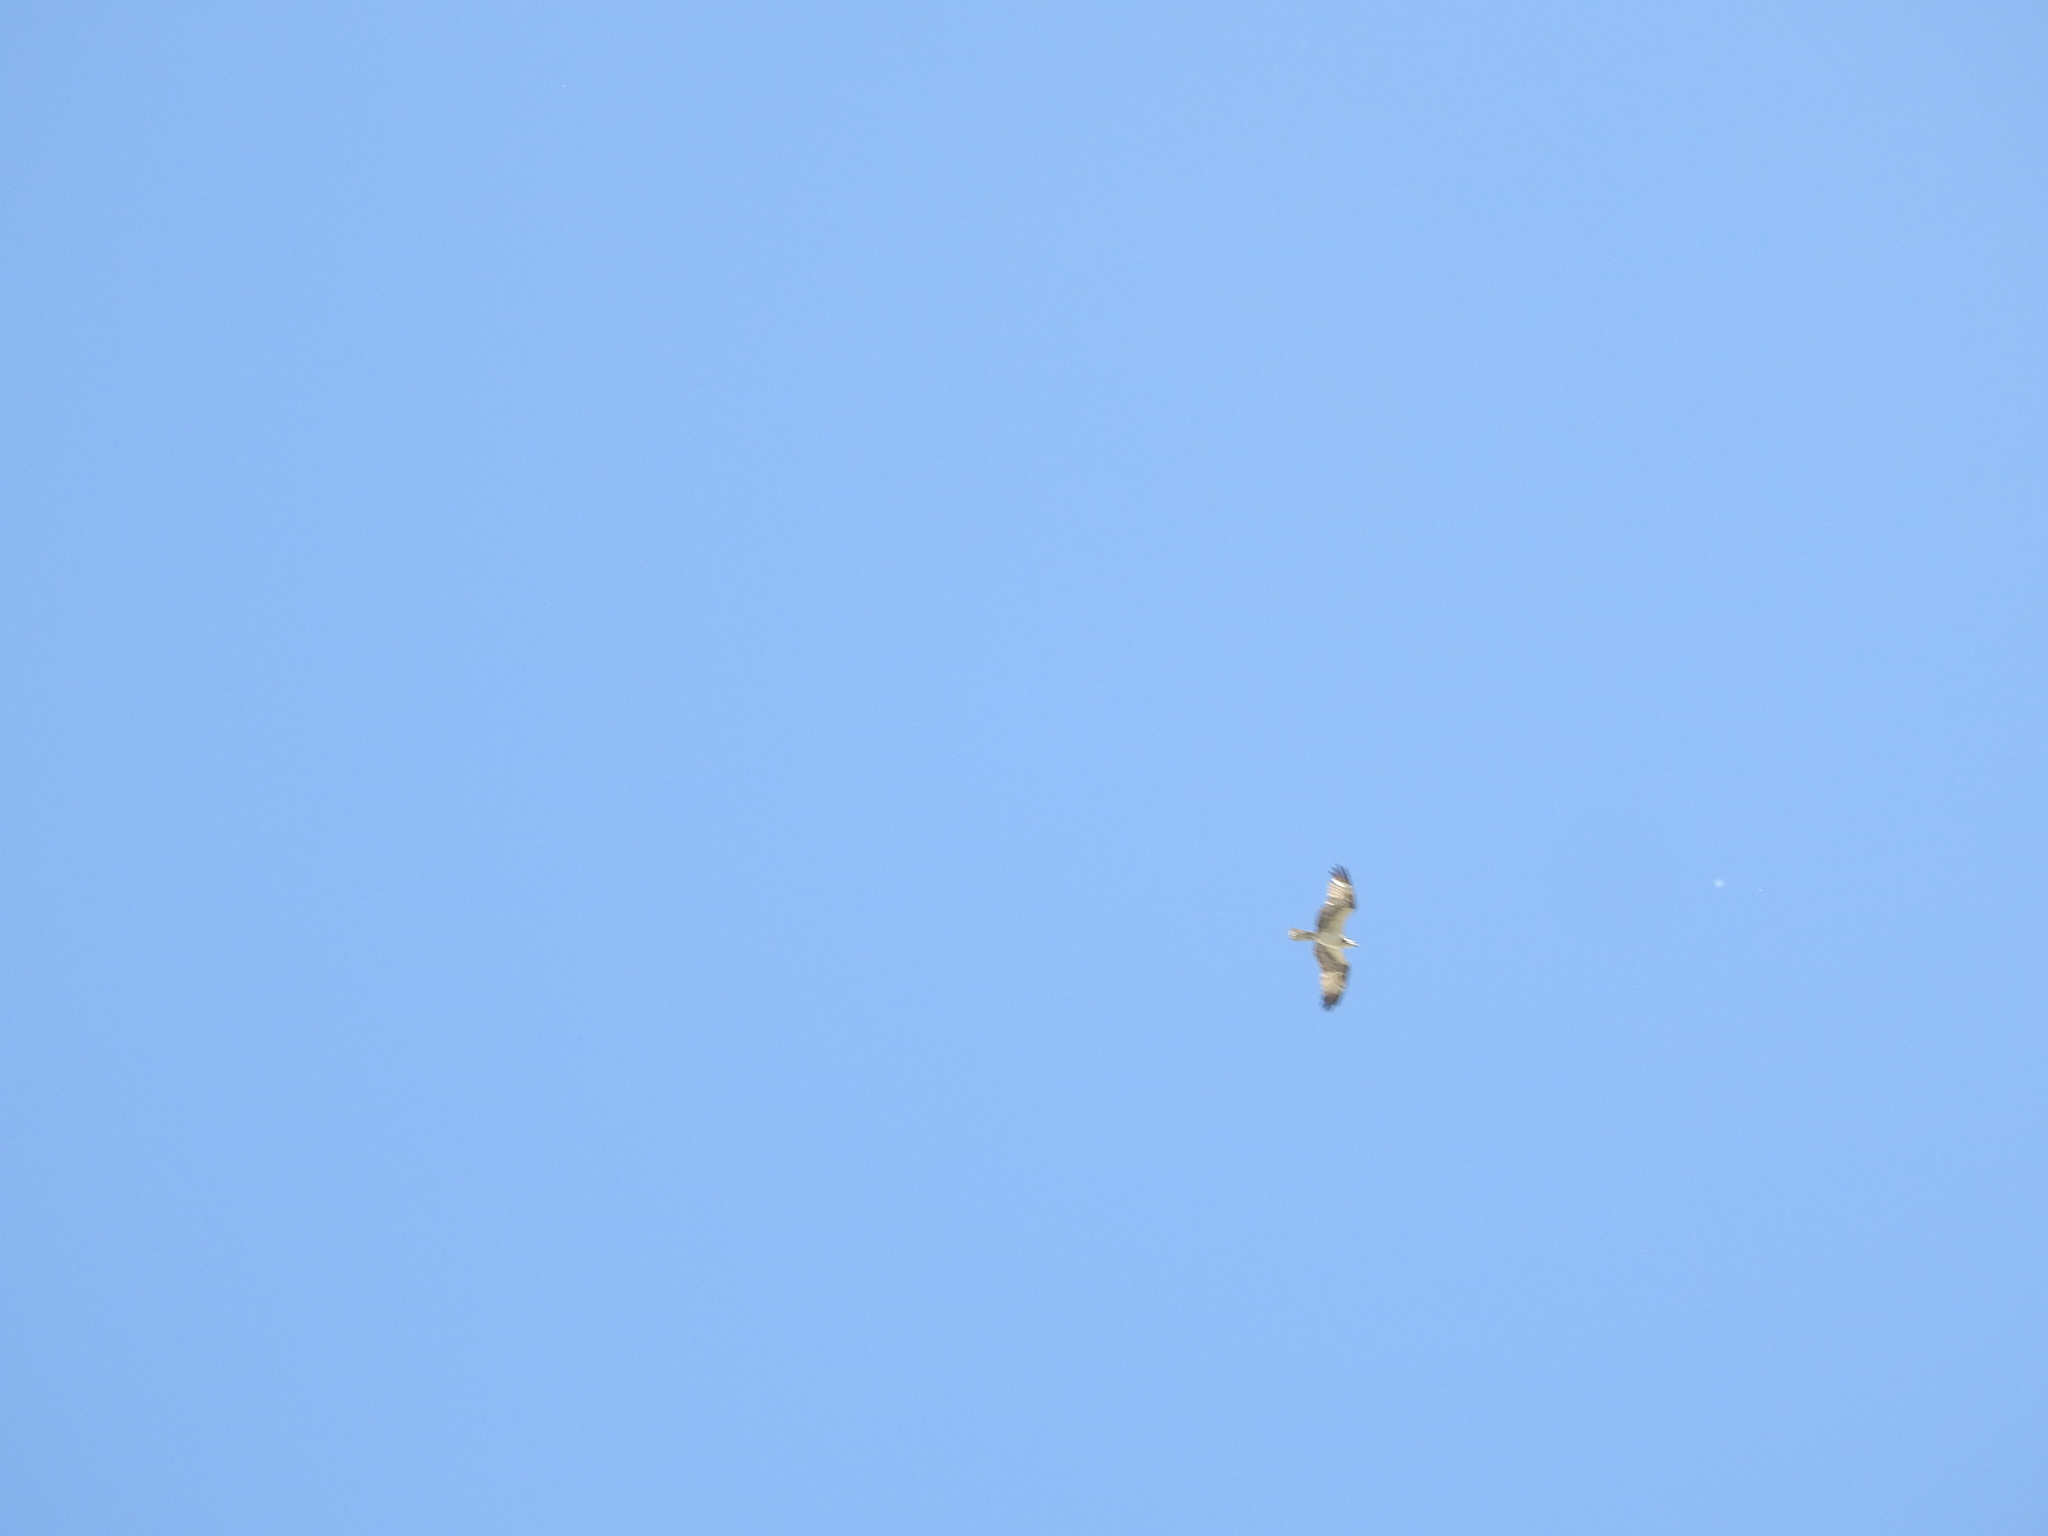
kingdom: Animalia
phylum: Chordata
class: Aves
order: Accipitriformes
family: Pandionidae
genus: Pandion
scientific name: Pandion haliaetus
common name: Osprey
